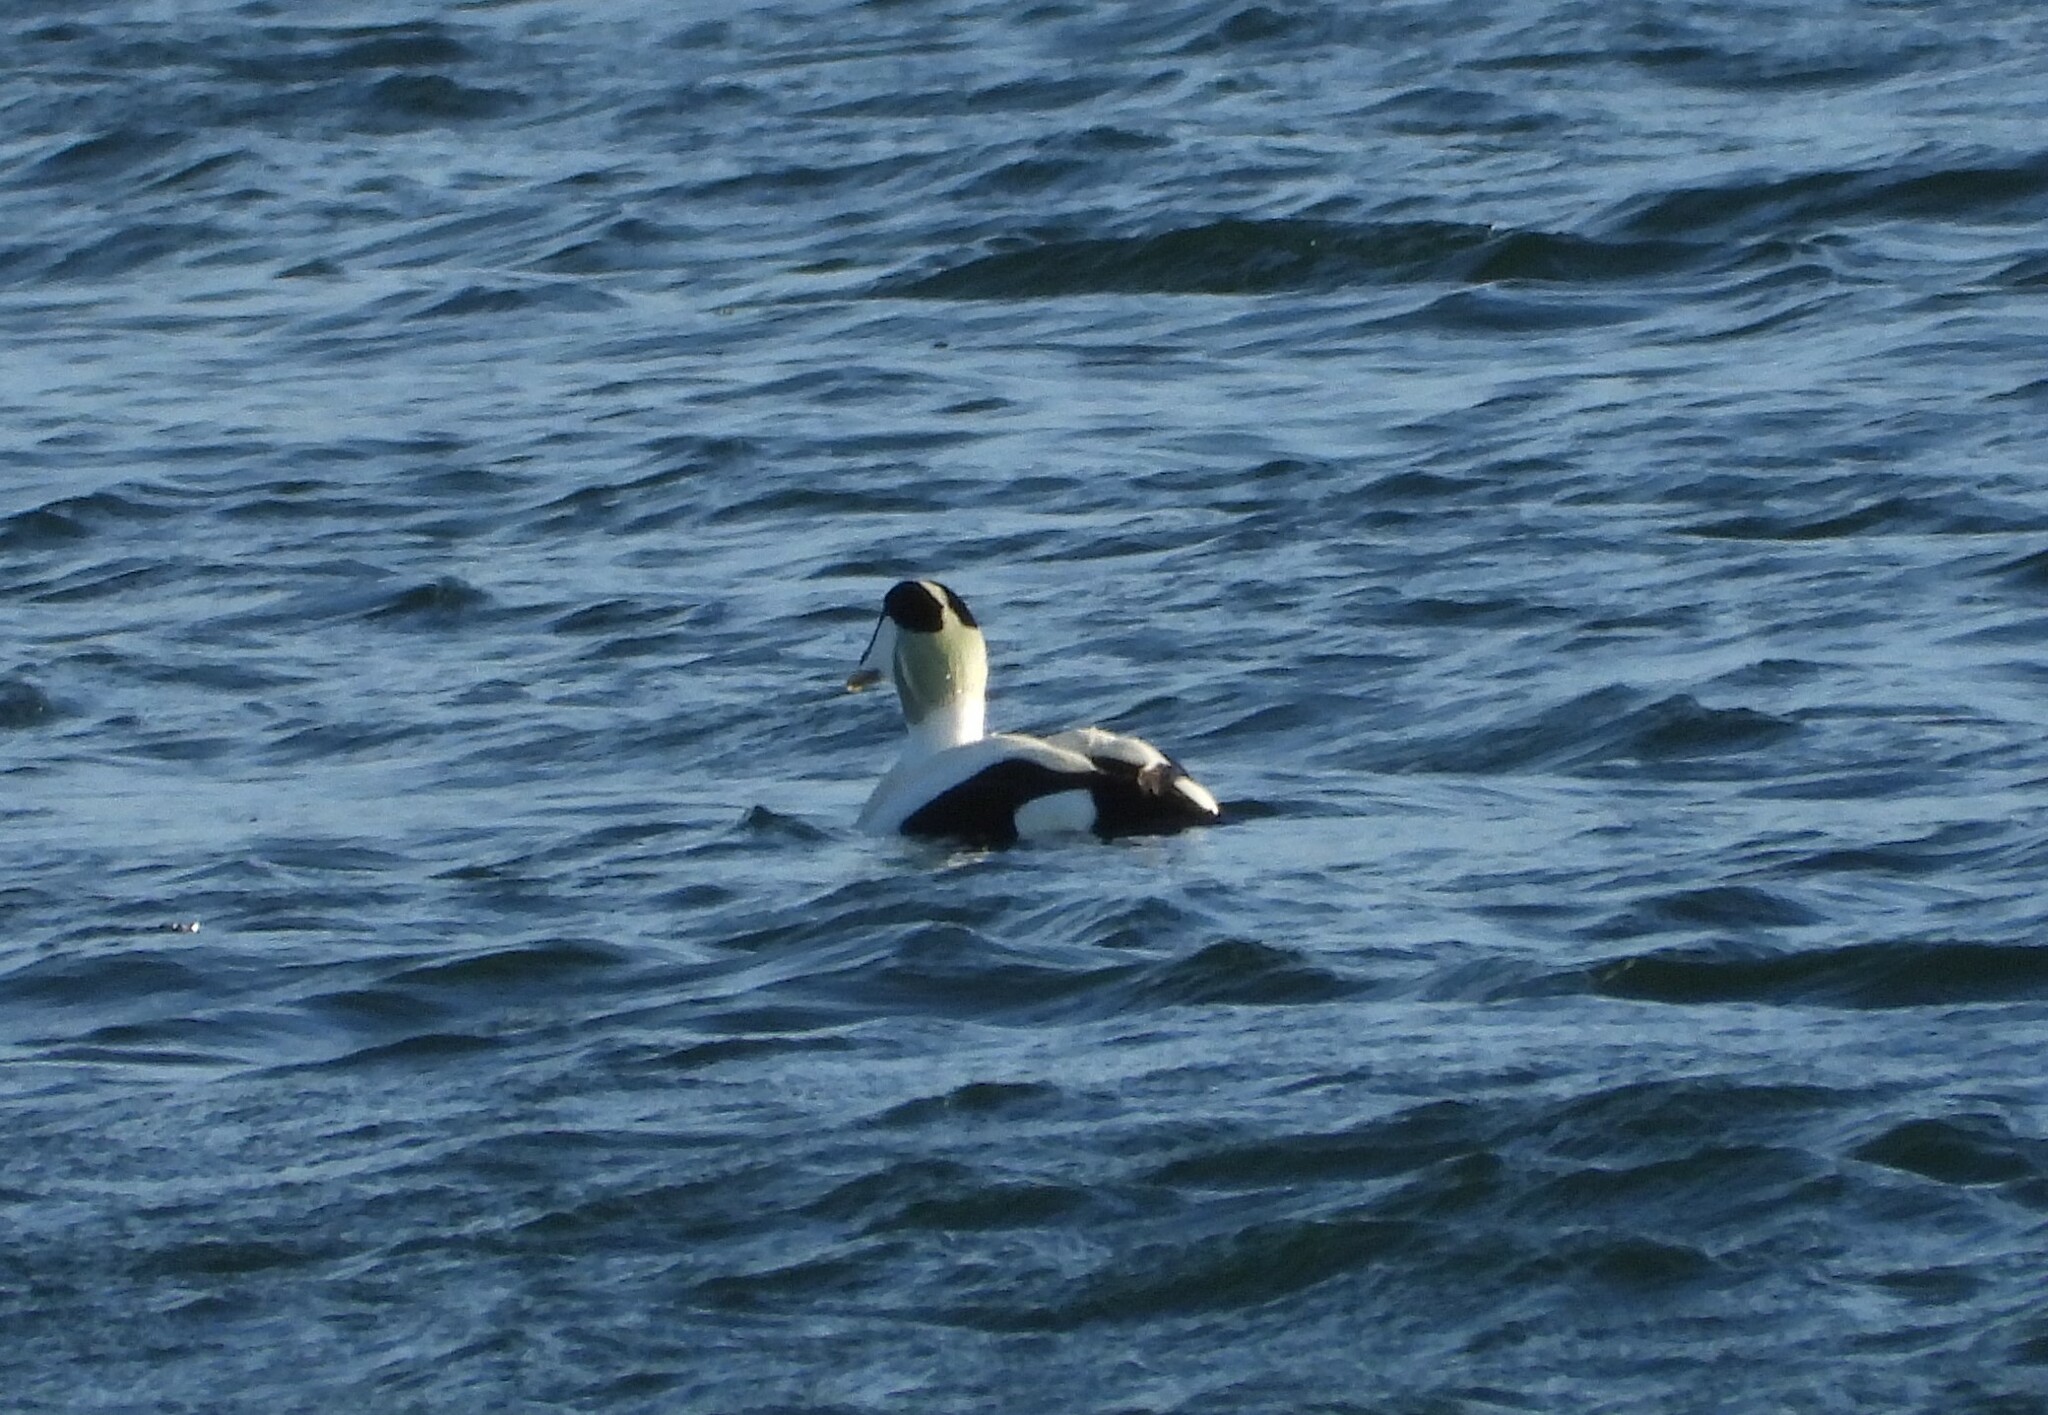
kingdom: Animalia
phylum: Chordata
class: Aves
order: Anseriformes
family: Anatidae
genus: Somateria
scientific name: Somateria mollissima
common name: Common eider
